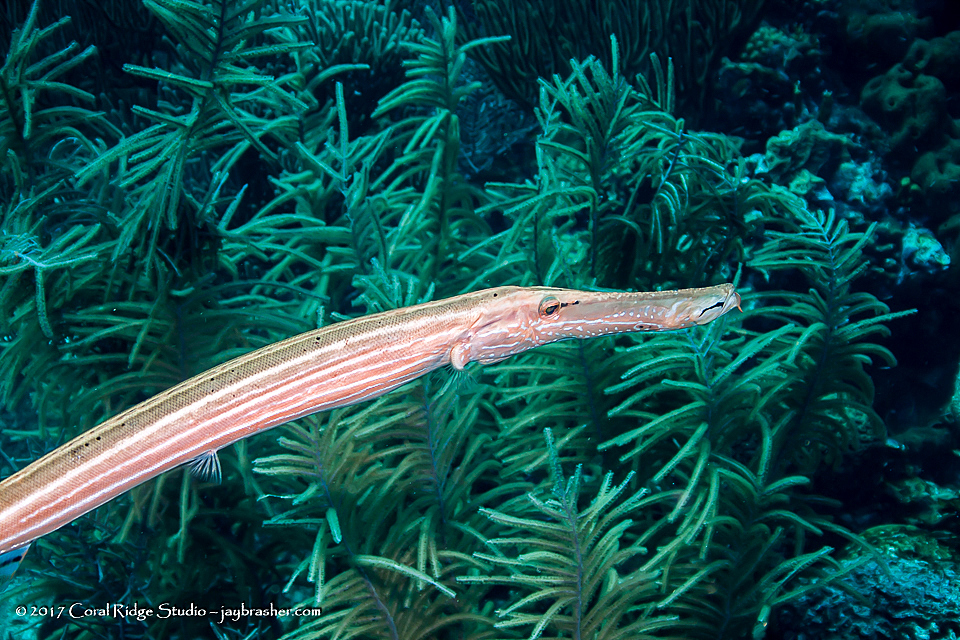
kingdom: Animalia
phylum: Chordata
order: Syngnathiformes
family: Aulostomidae
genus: Aulostomus
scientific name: Aulostomus maculatus
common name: West atlantic trumpetfish
